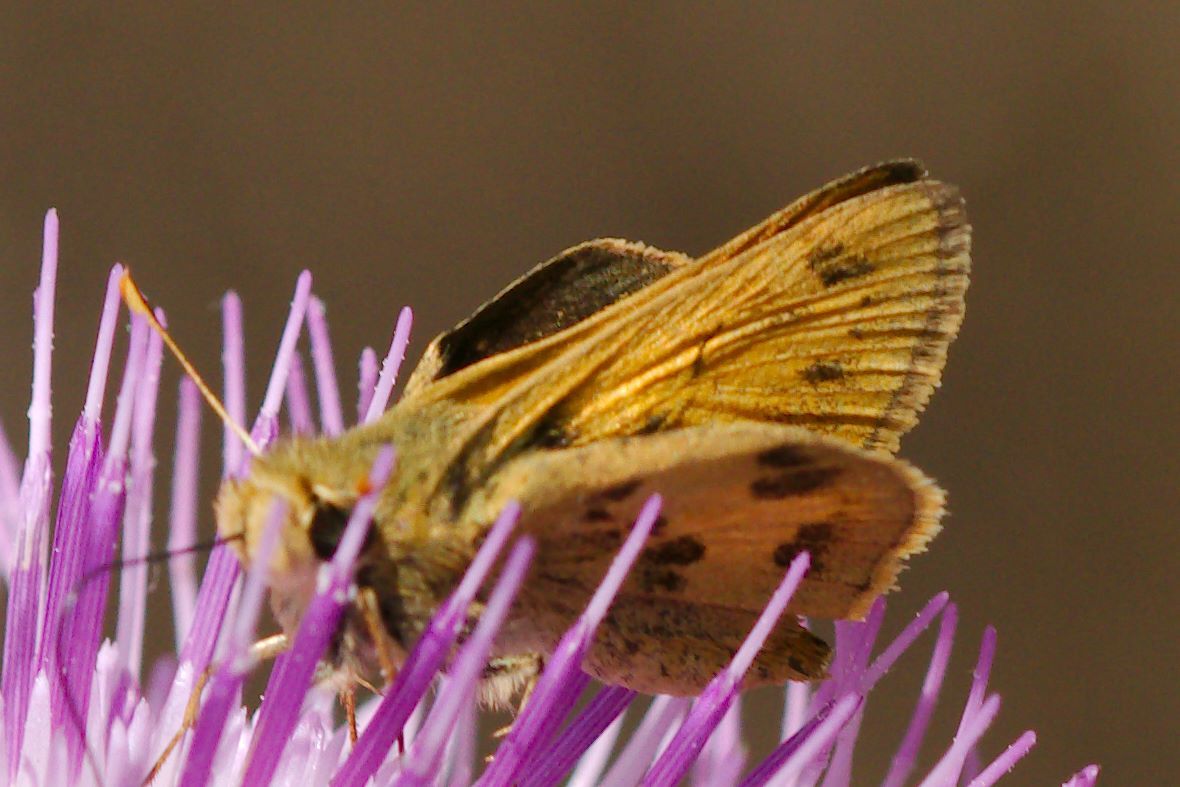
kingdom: Animalia
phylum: Arthropoda
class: Insecta
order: Lepidoptera
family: Hesperiidae
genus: Polites
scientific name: Polites vibex
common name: Whirlabout
